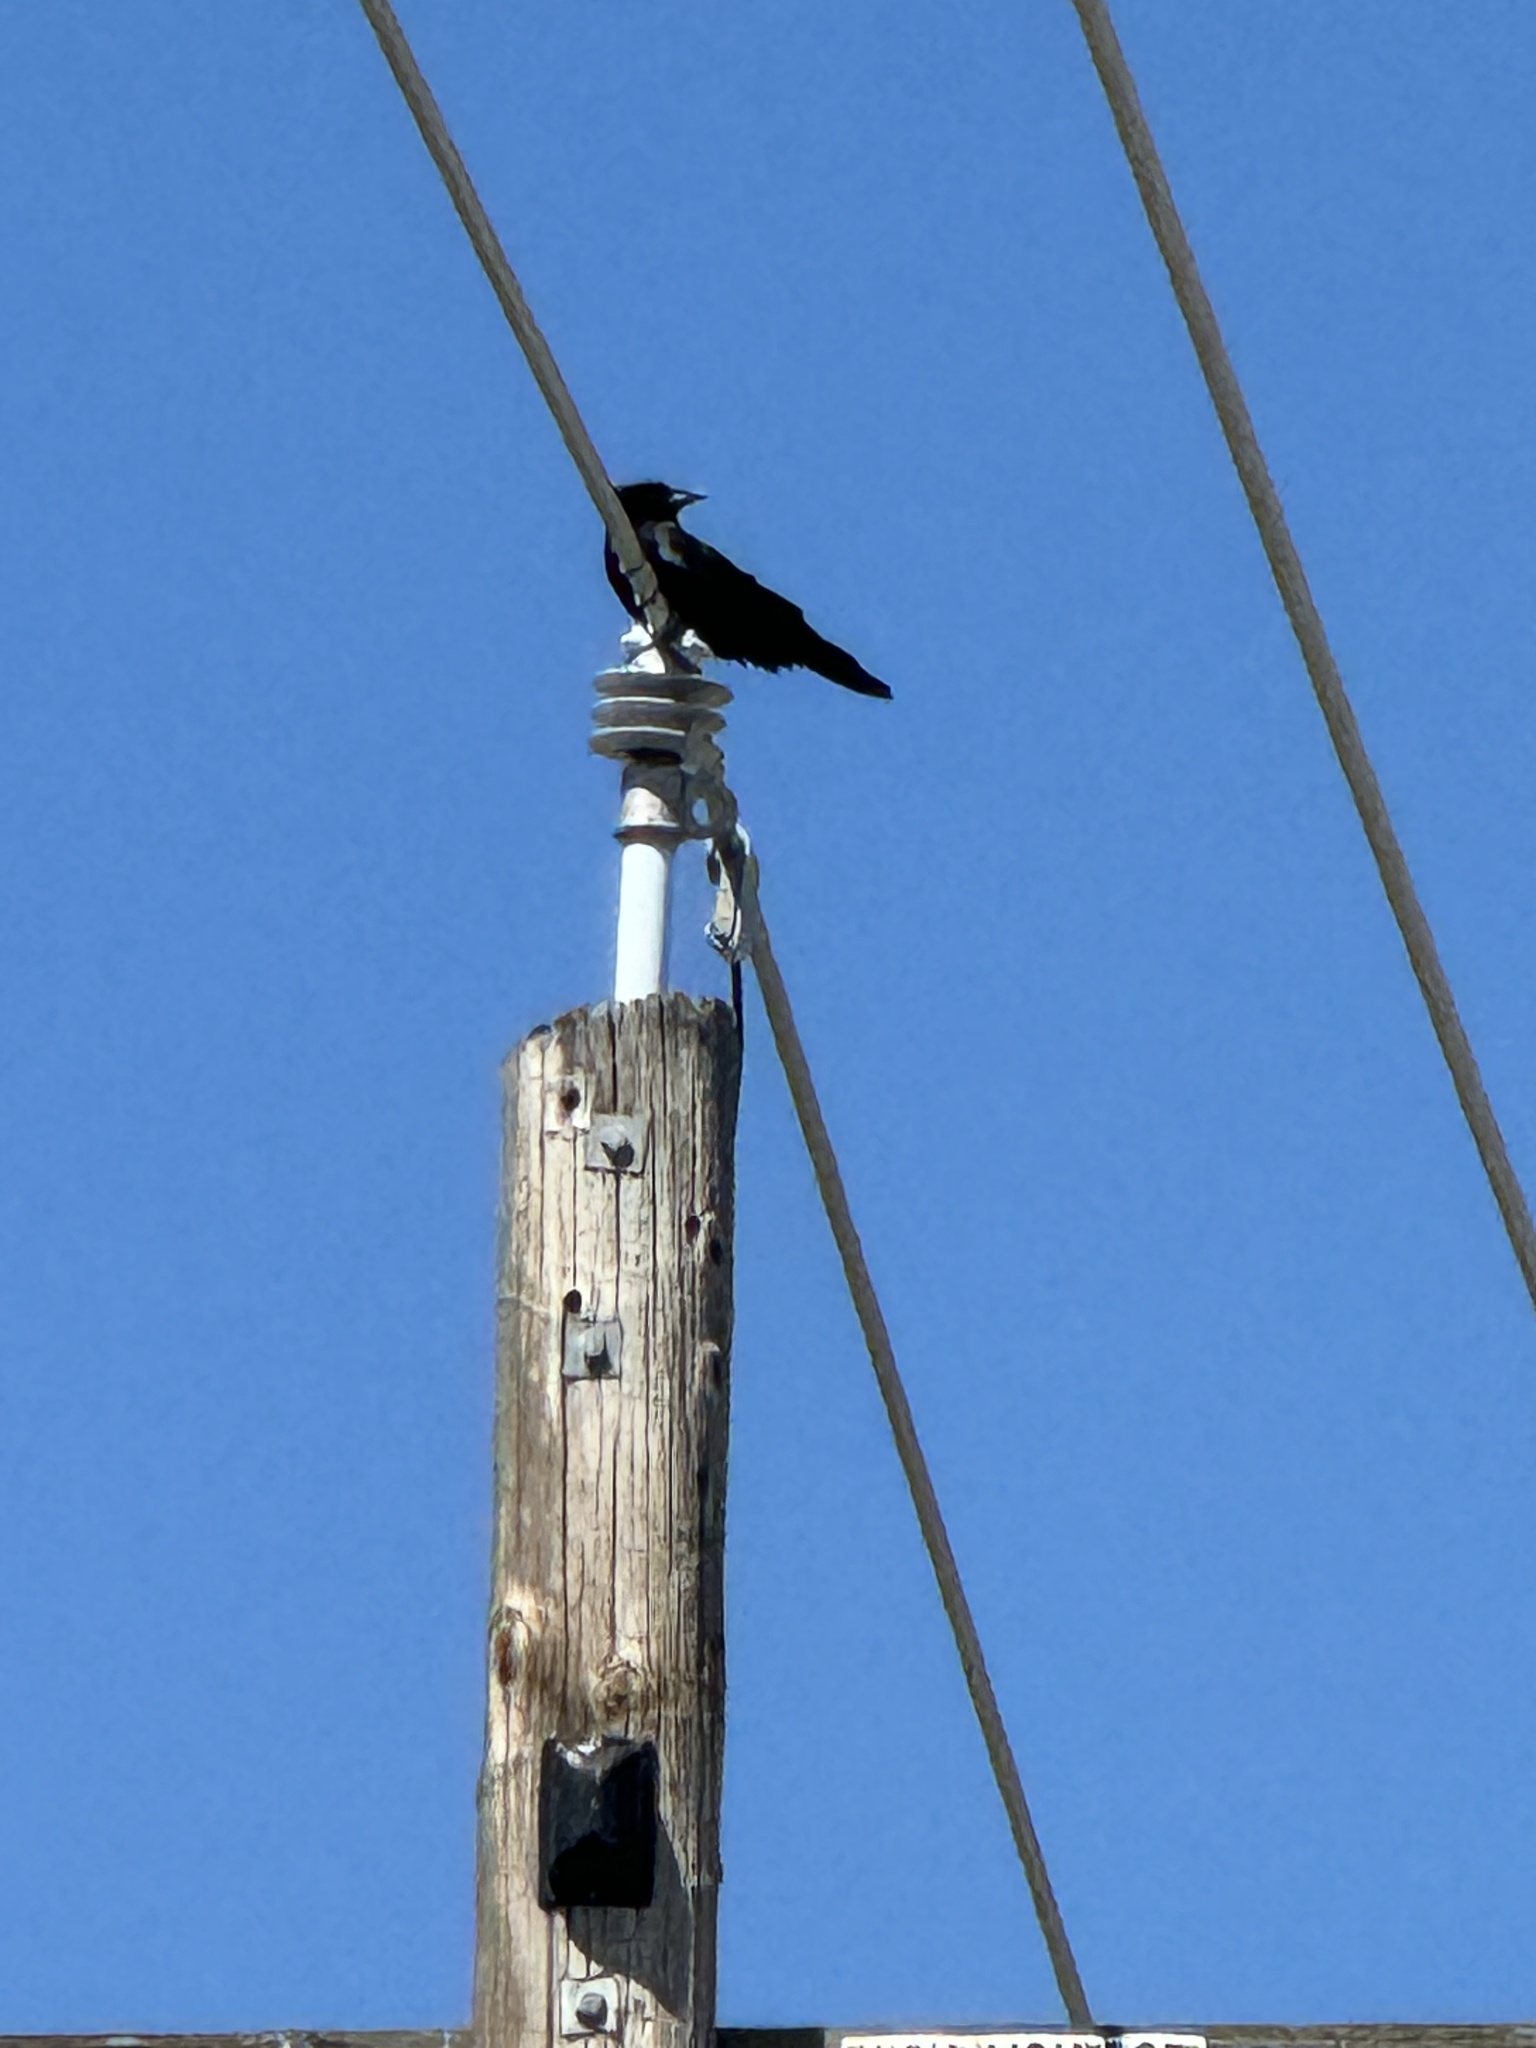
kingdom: Animalia
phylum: Chordata
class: Aves
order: Passeriformes
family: Corvidae
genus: Corvus
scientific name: Corvus brachyrhynchos
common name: American crow
